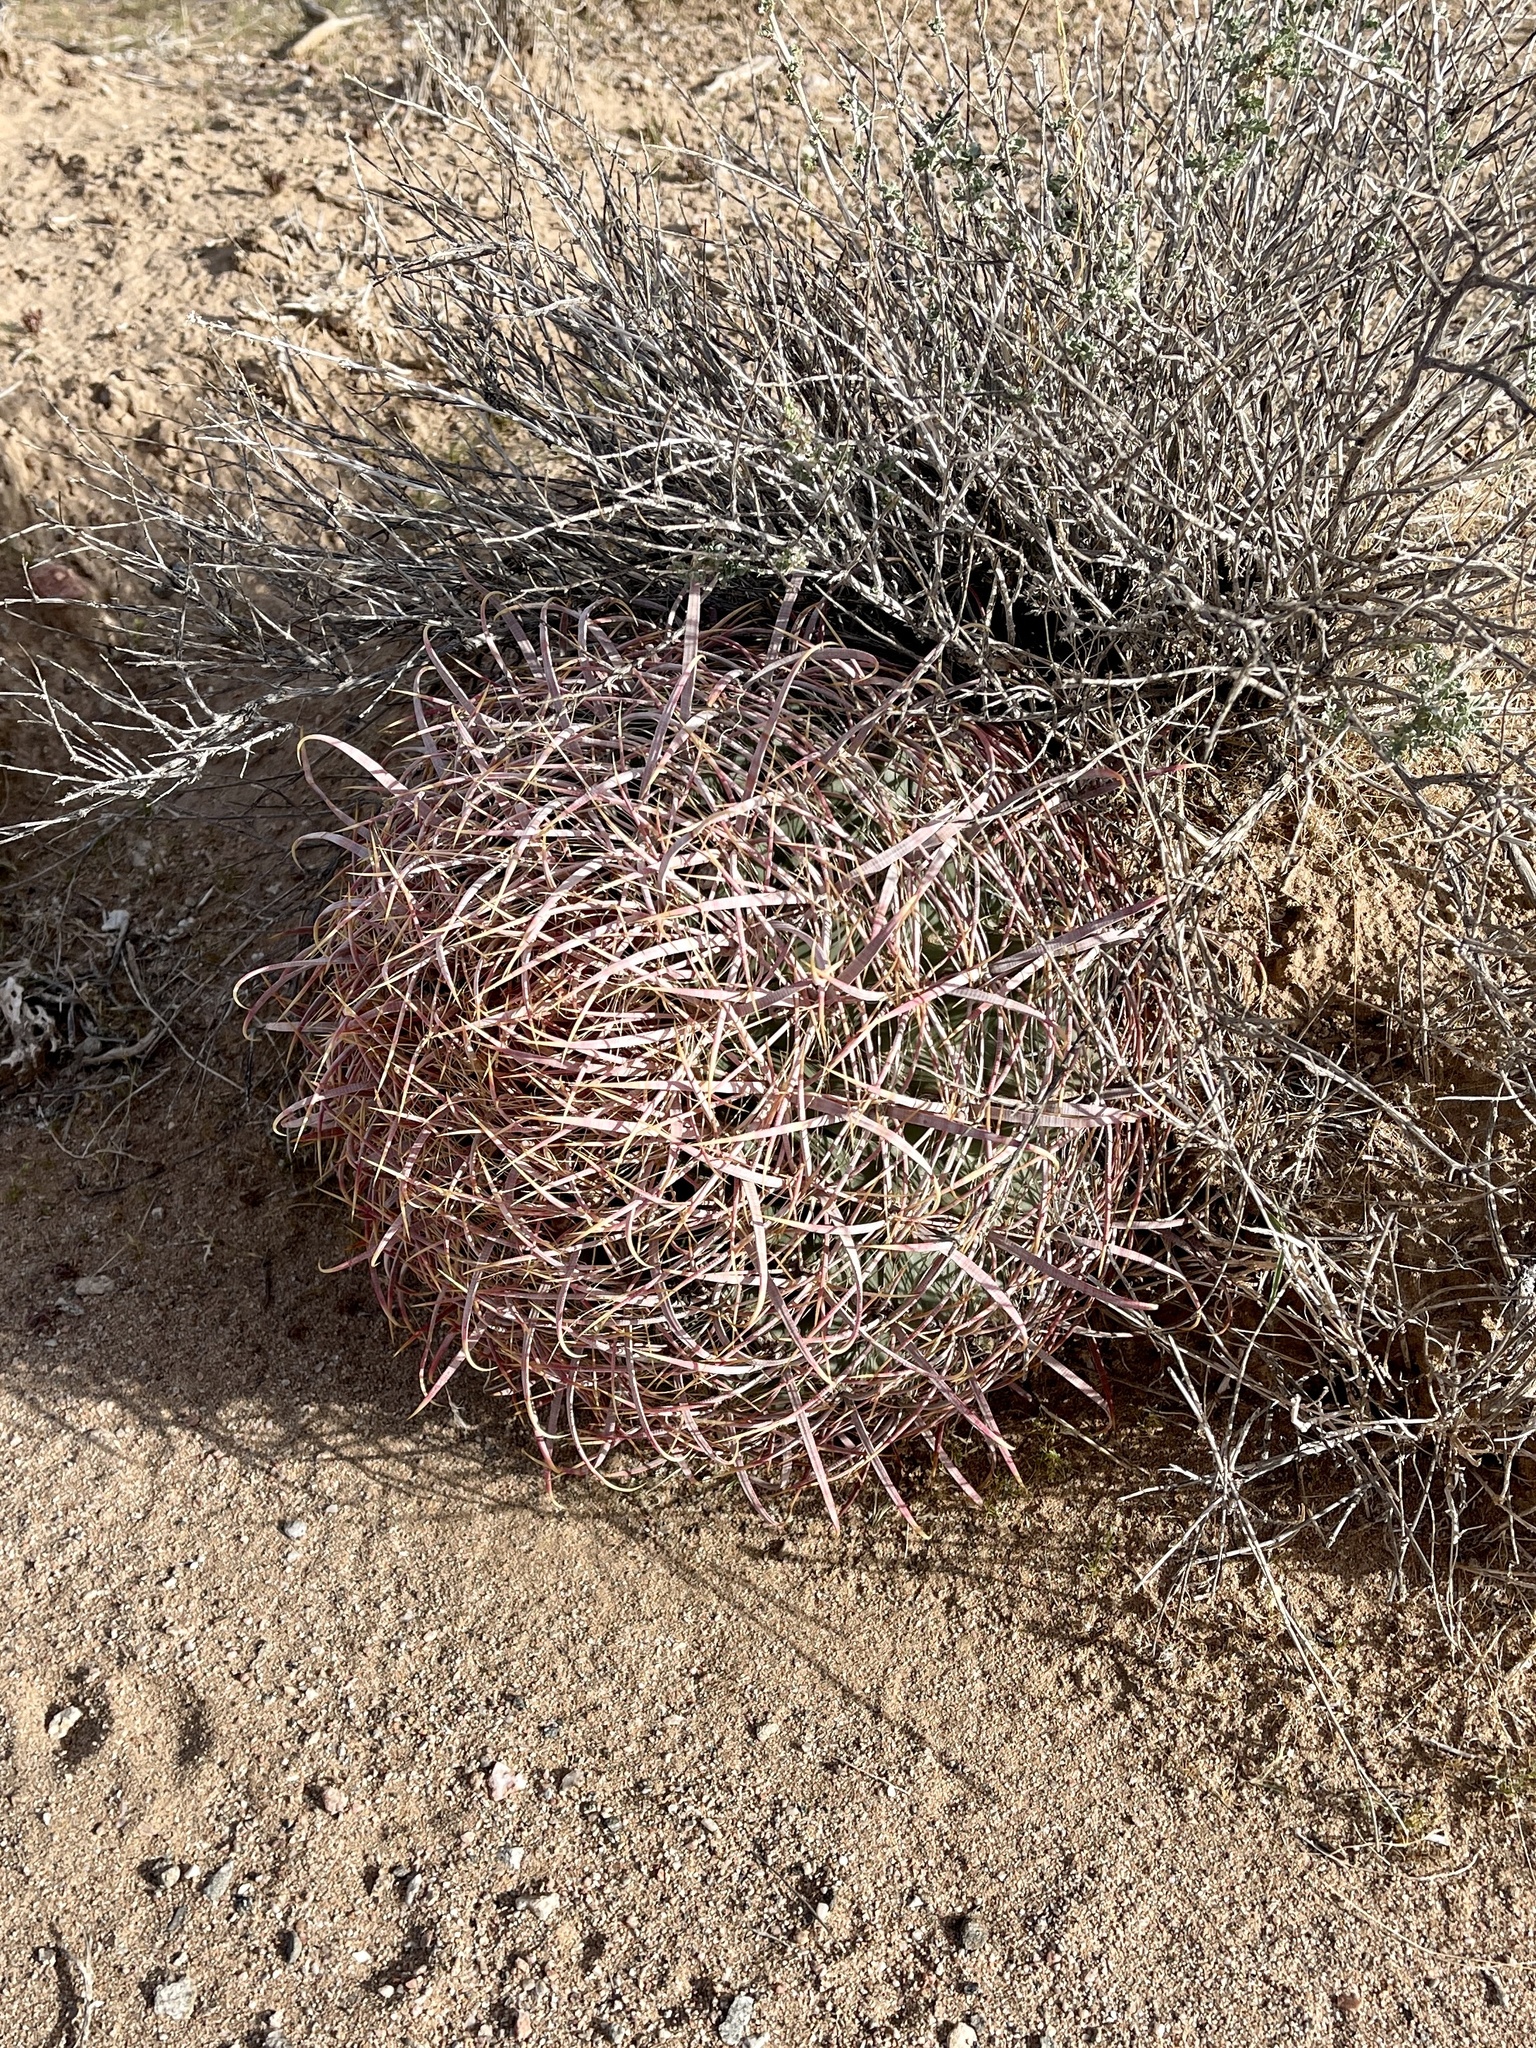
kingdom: Plantae
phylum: Tracheophyta
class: Magnoliopsida
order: Caryophyllales
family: Cactaceae
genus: Ferocactus
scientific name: Ferocactus cylindraceus
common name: California barrel cactus
